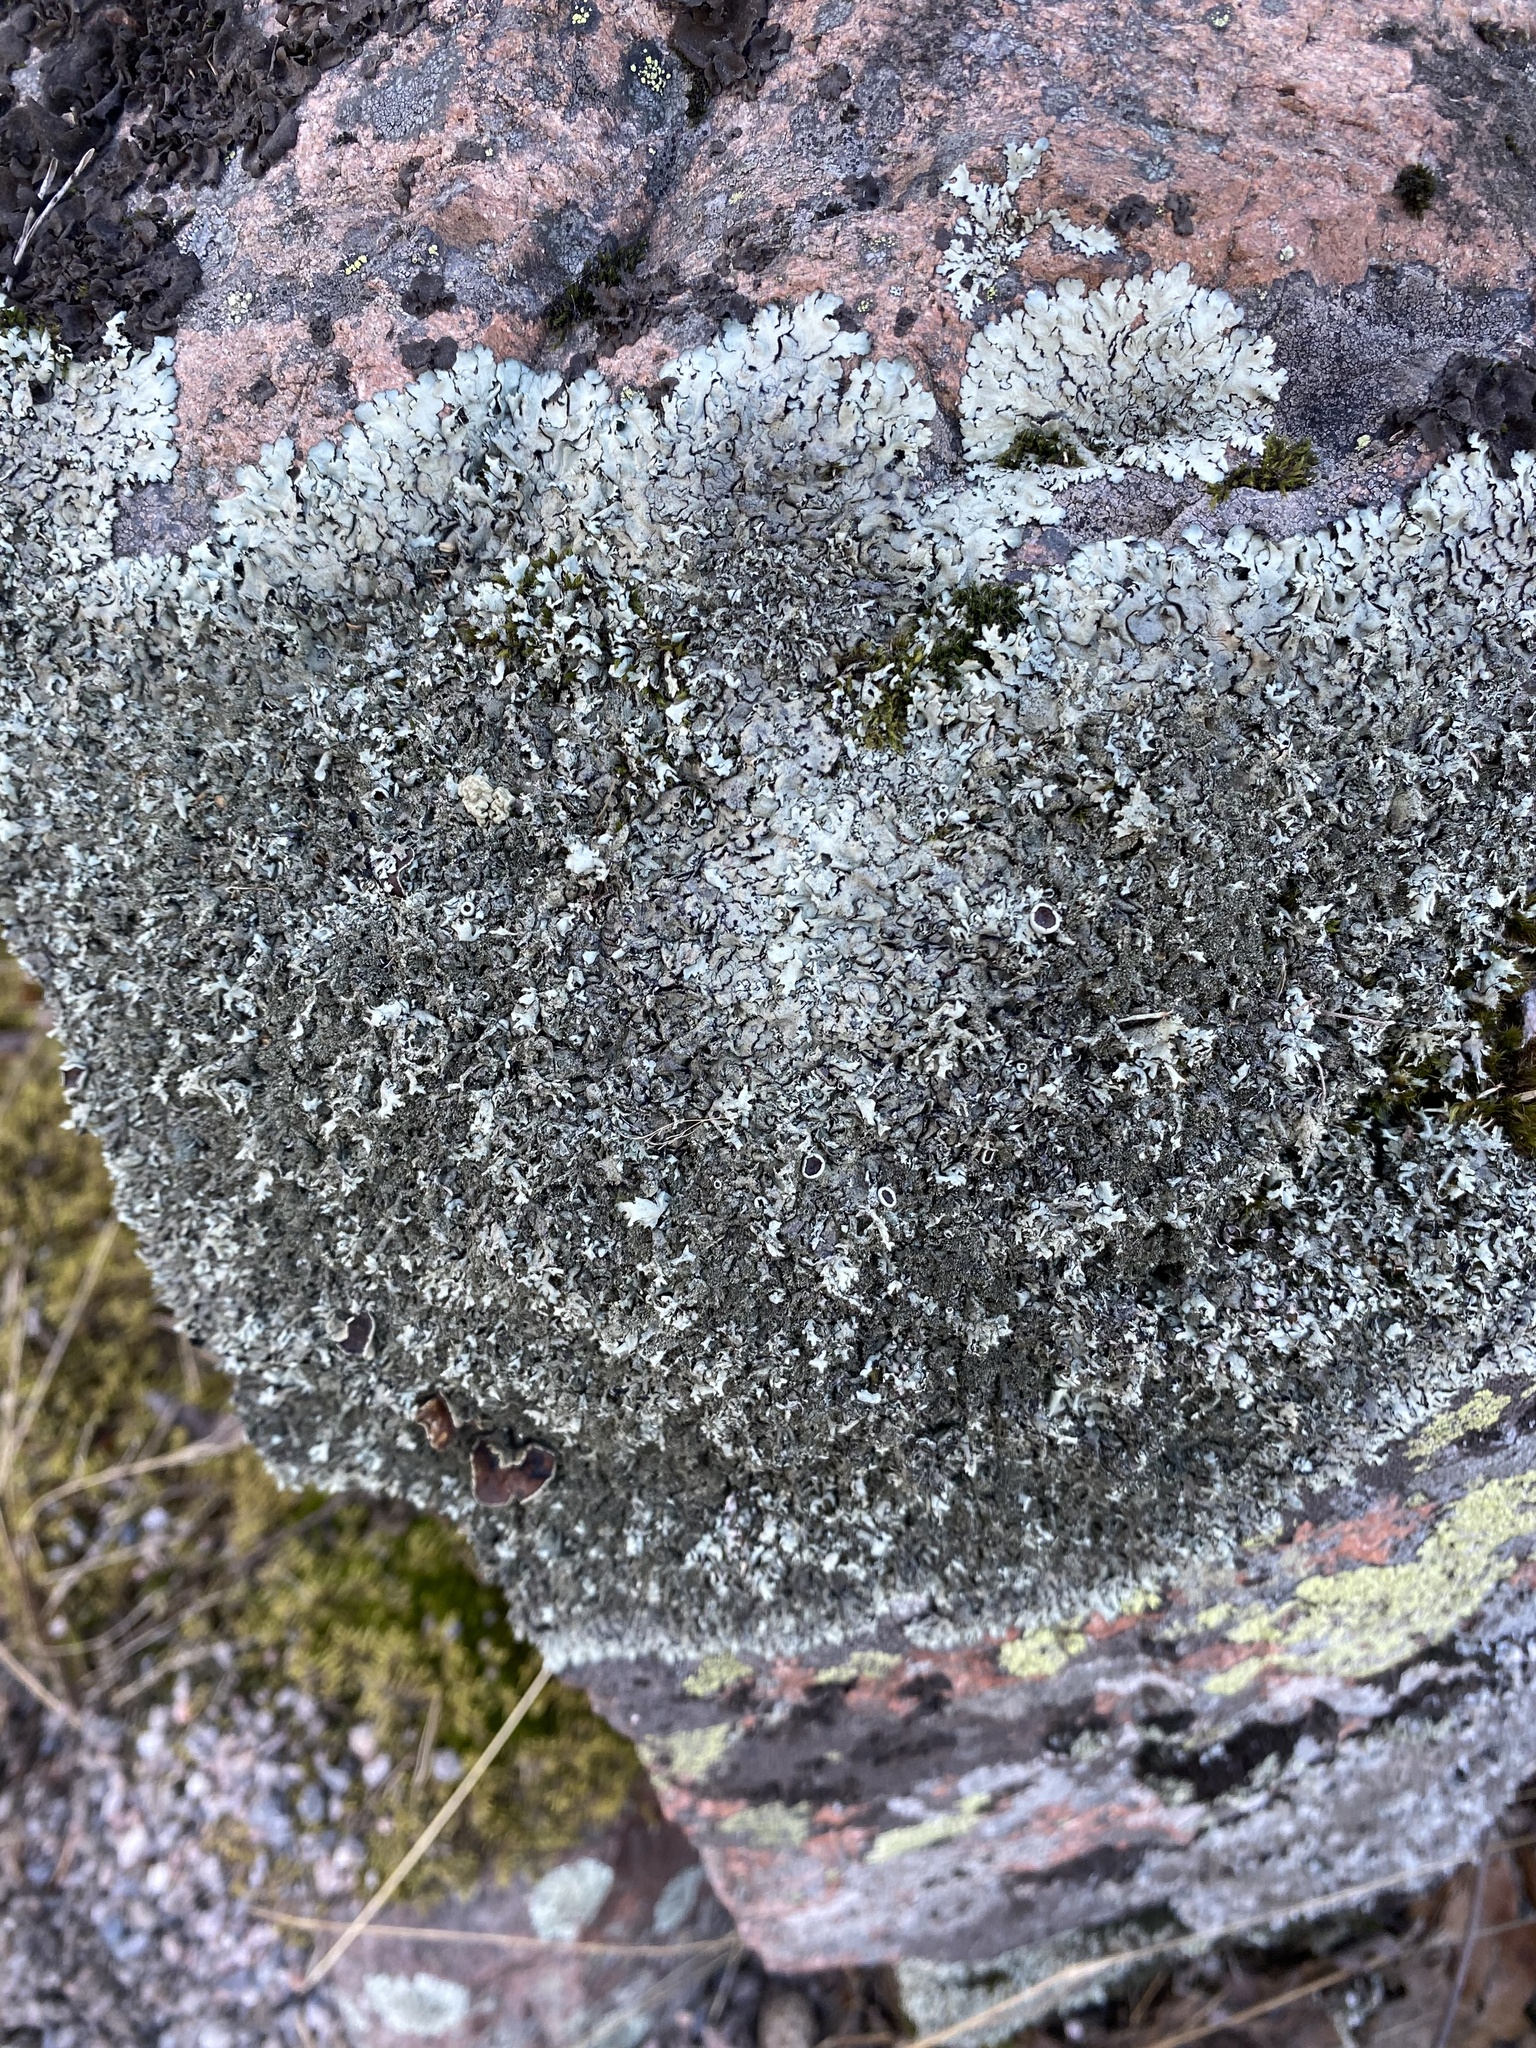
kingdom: Fungi
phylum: Ascomycota
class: Lecanoromycetes
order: Lecanorales
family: Parmeliaceae
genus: Xanthoparmelia
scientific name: Xanthoparmelia conspersa
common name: Peppered rock shield
